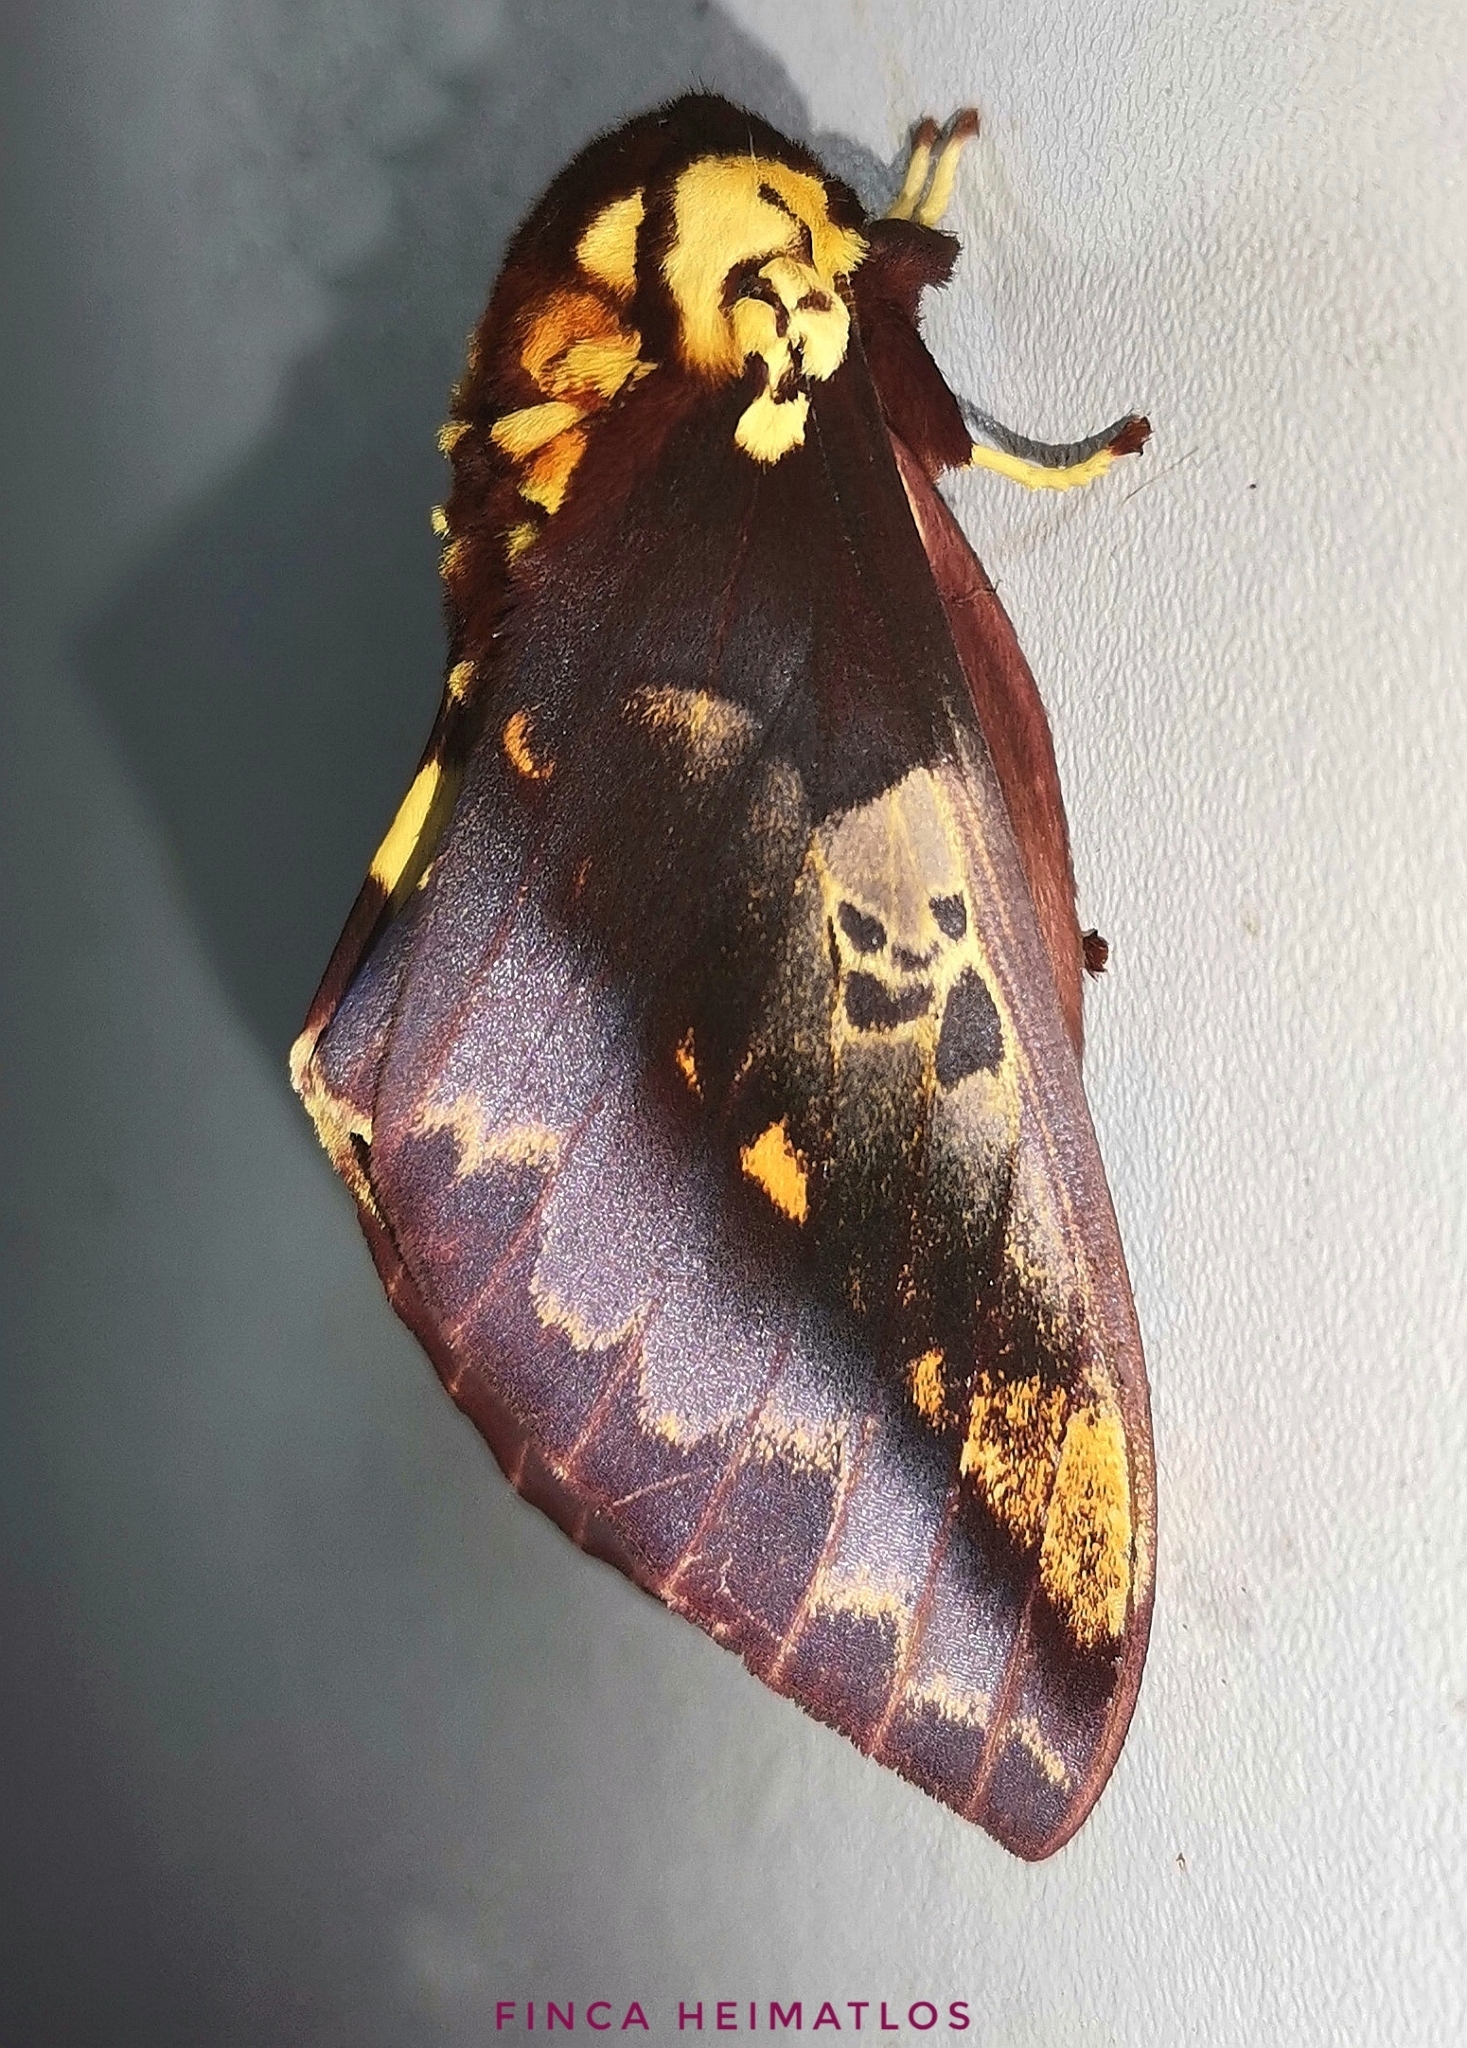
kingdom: Animalia
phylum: Arthropoda
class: Insecta
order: Lepidoptera
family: Saturniidae
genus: Citheronia
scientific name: Citheronia phoronea
